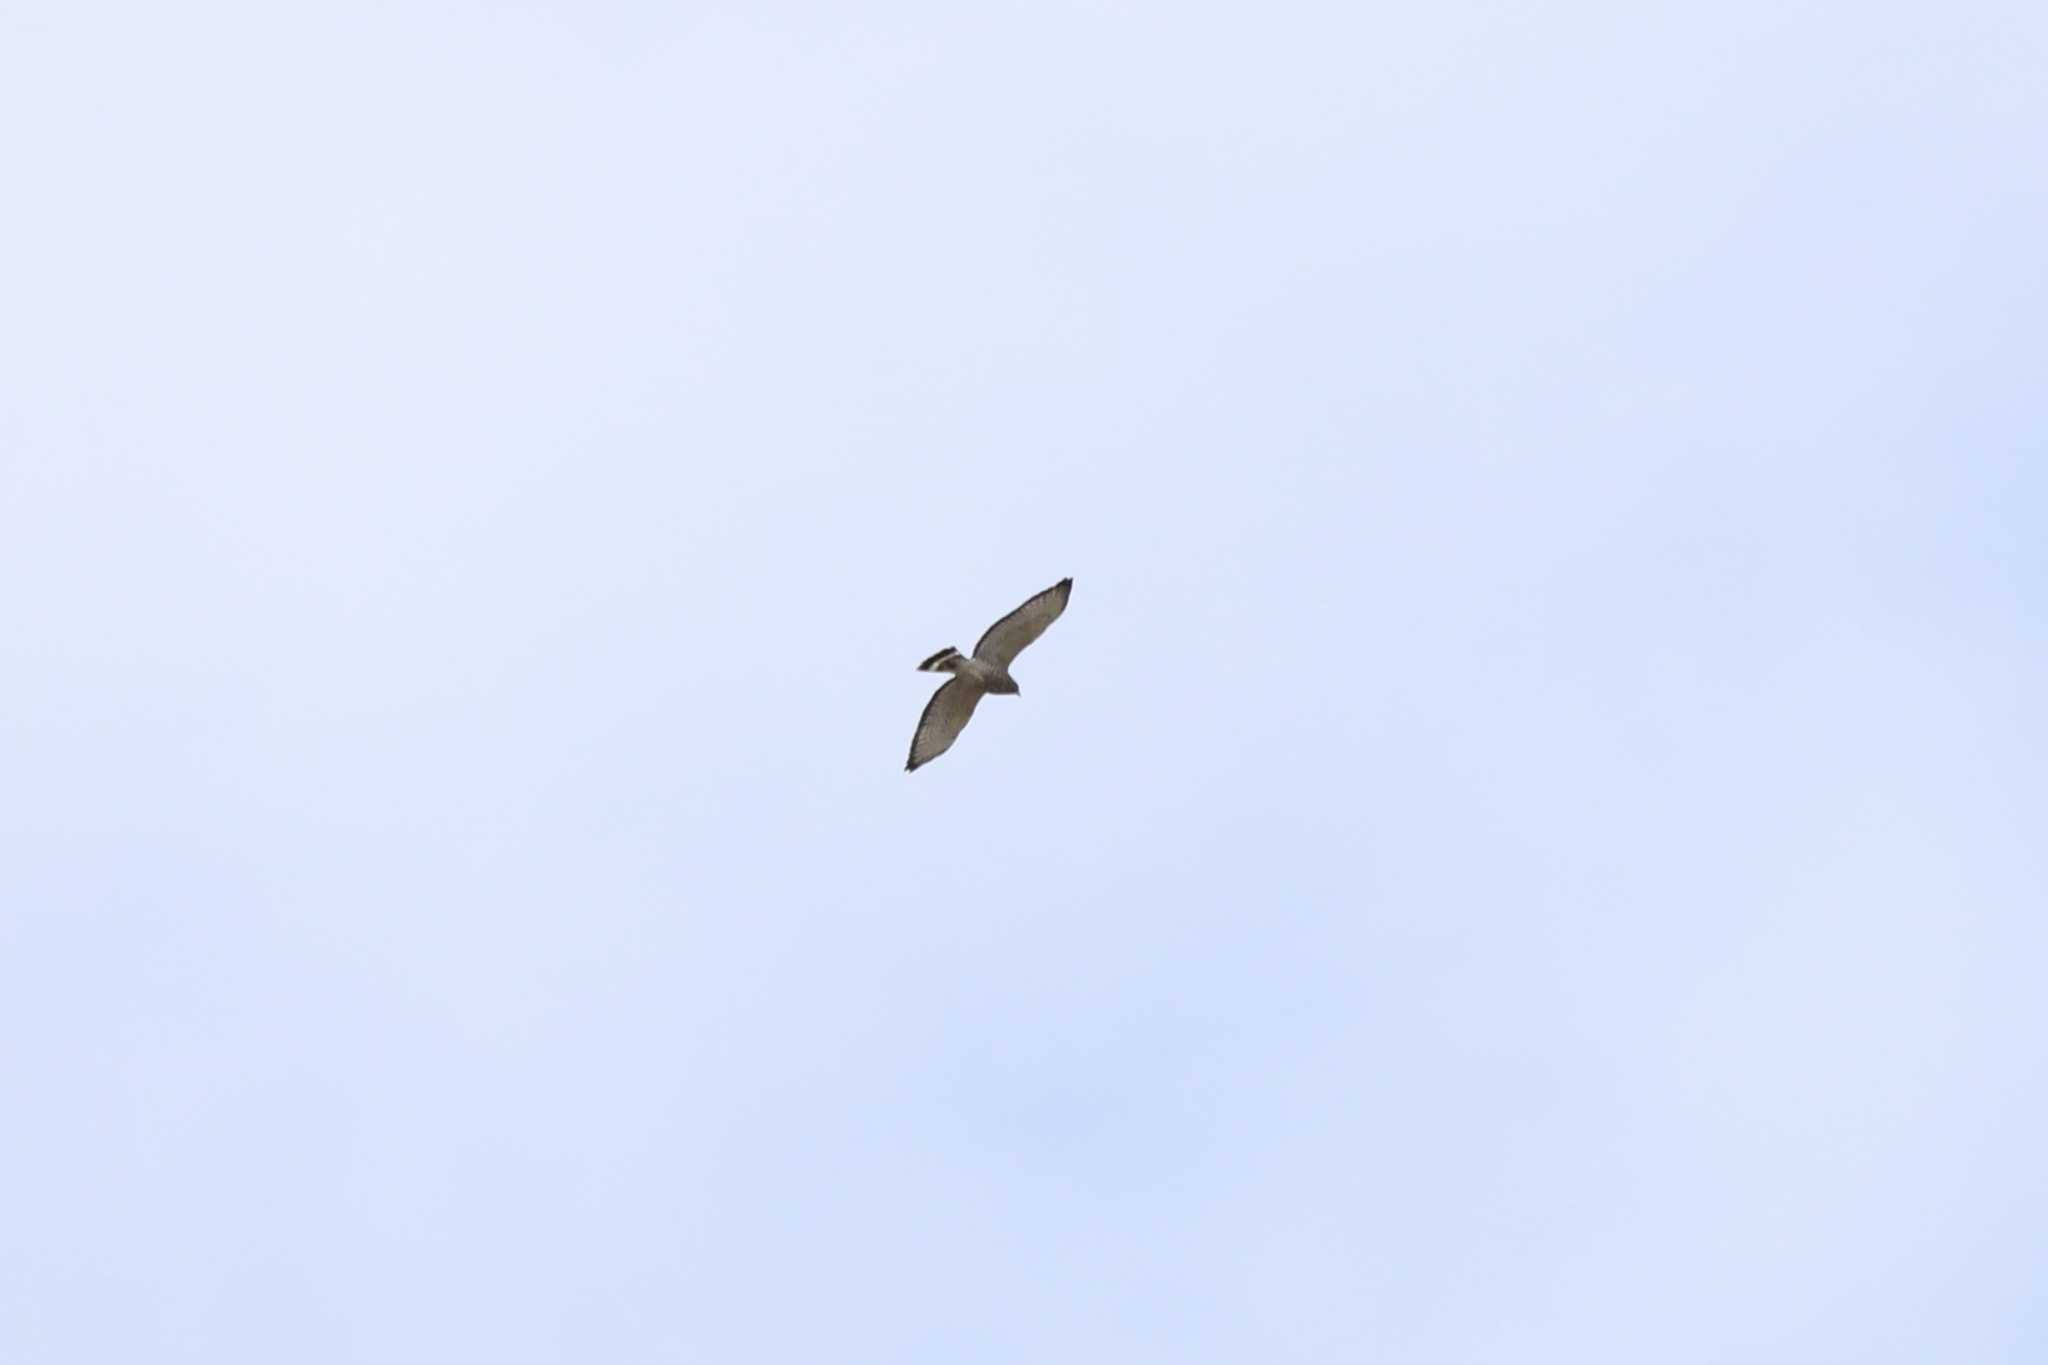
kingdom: Animalia
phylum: Chordata
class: Aves
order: Accipitriformes
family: Accipitridae
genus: Buteo
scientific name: Buteo platypterus
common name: Broad-winged hawk
